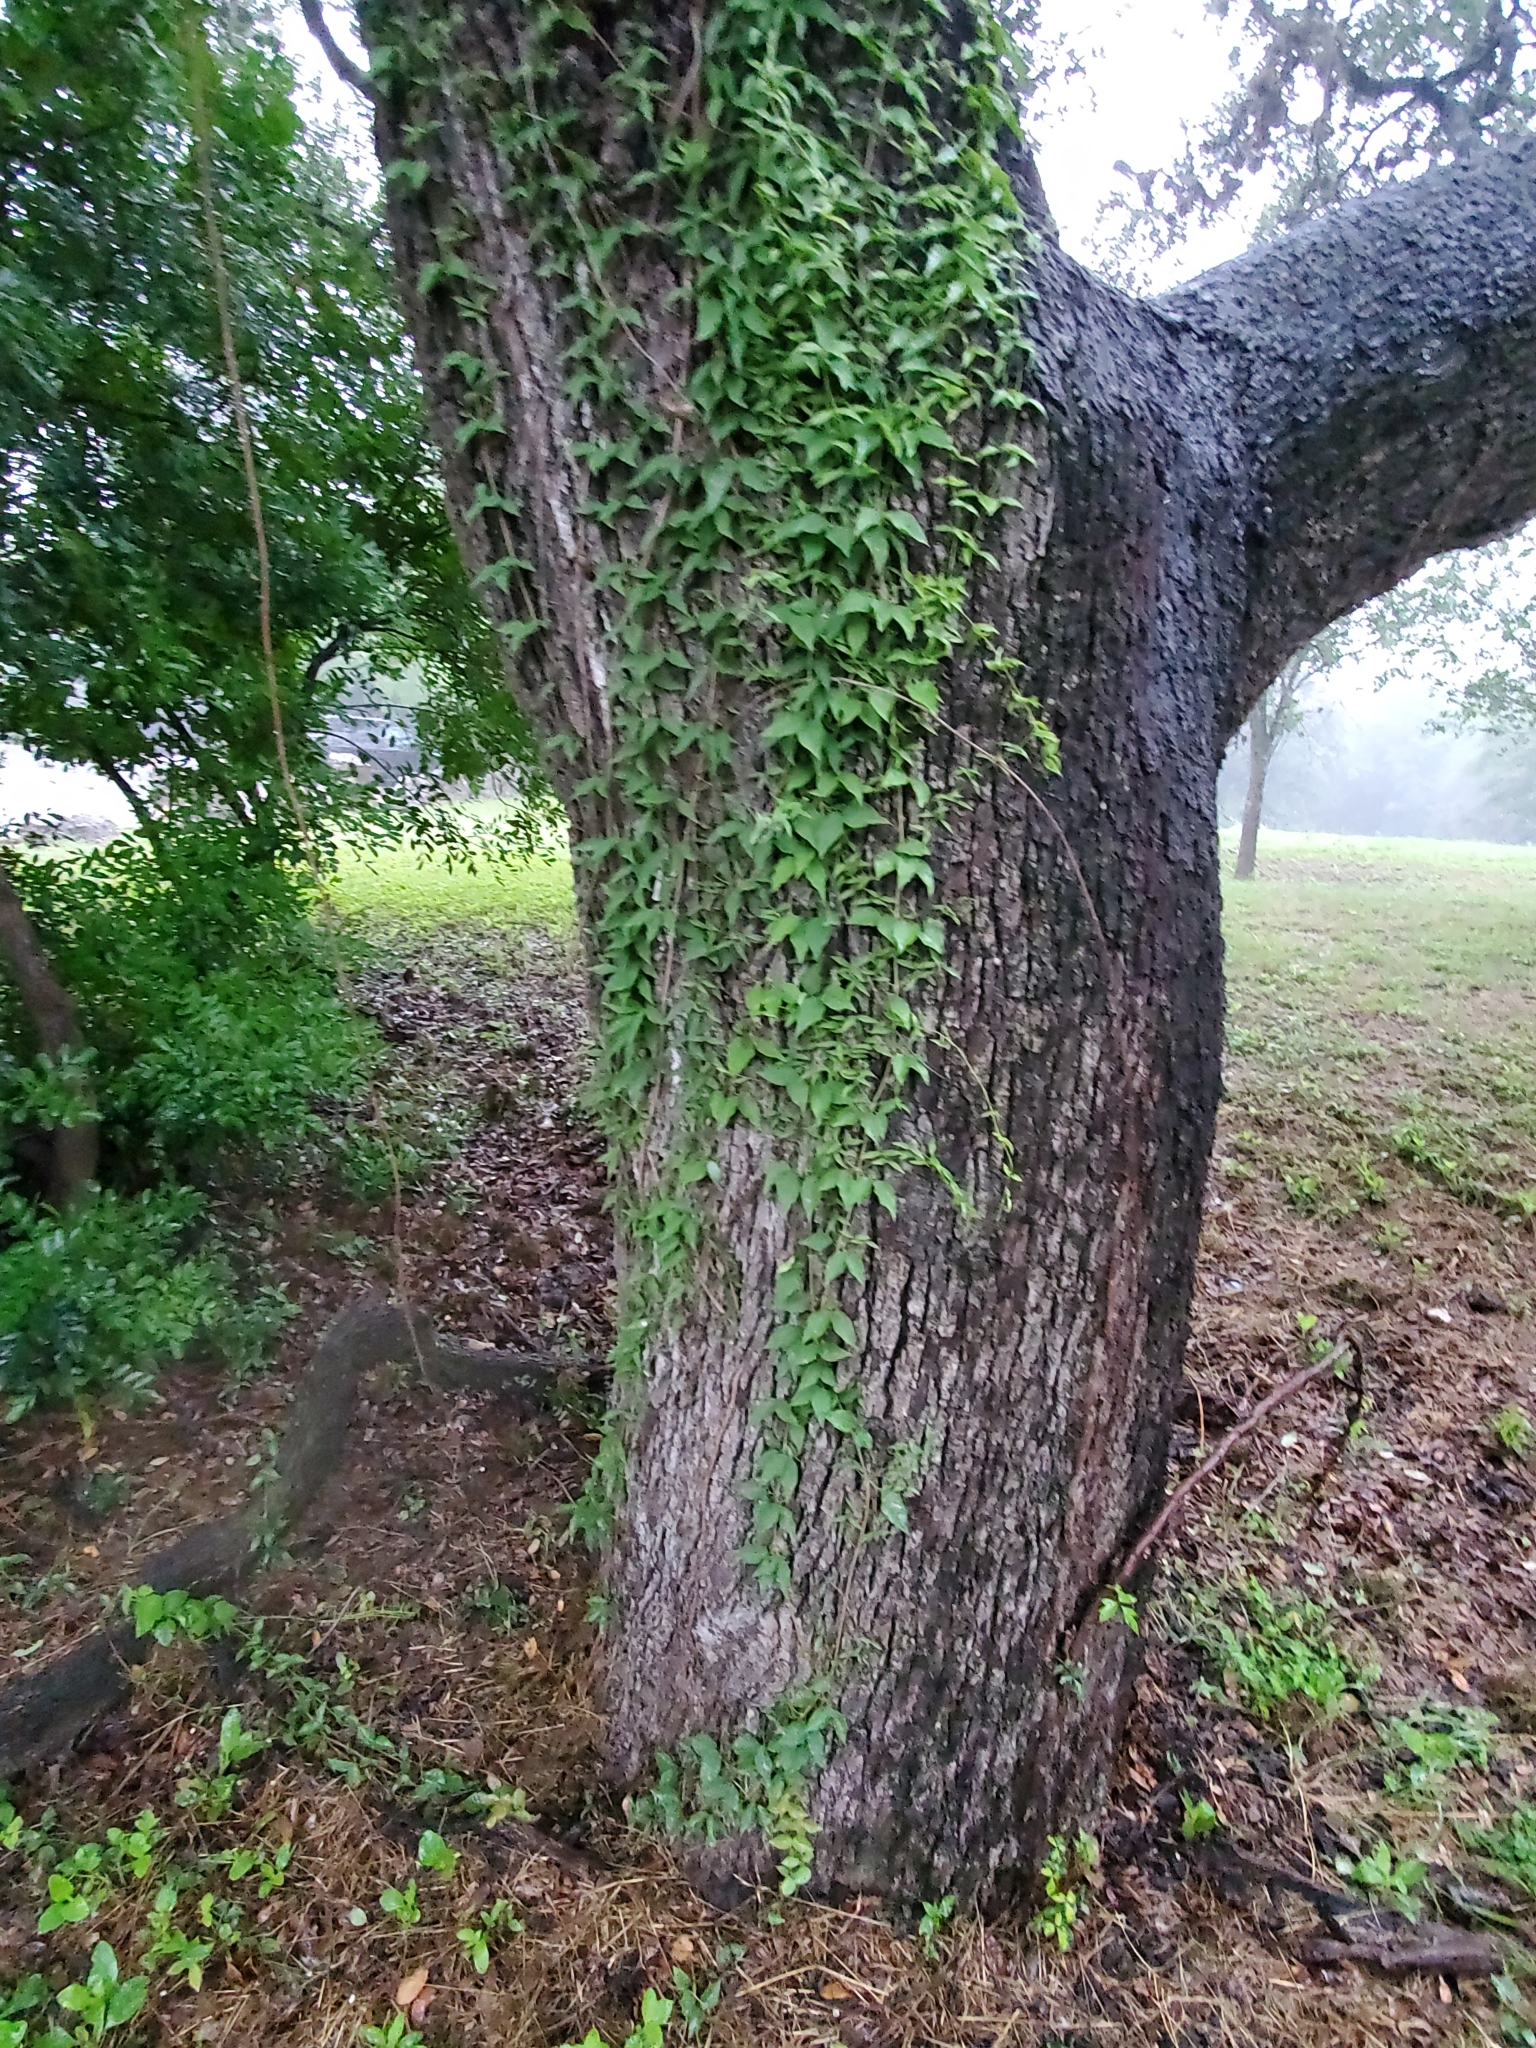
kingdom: Plantae
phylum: Tracheophyta
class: Magnoliopsida
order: Lamiales
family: Bignoniaceae
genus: Dolichandra
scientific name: Dolichandra unguis-cati
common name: Catclaw vine
